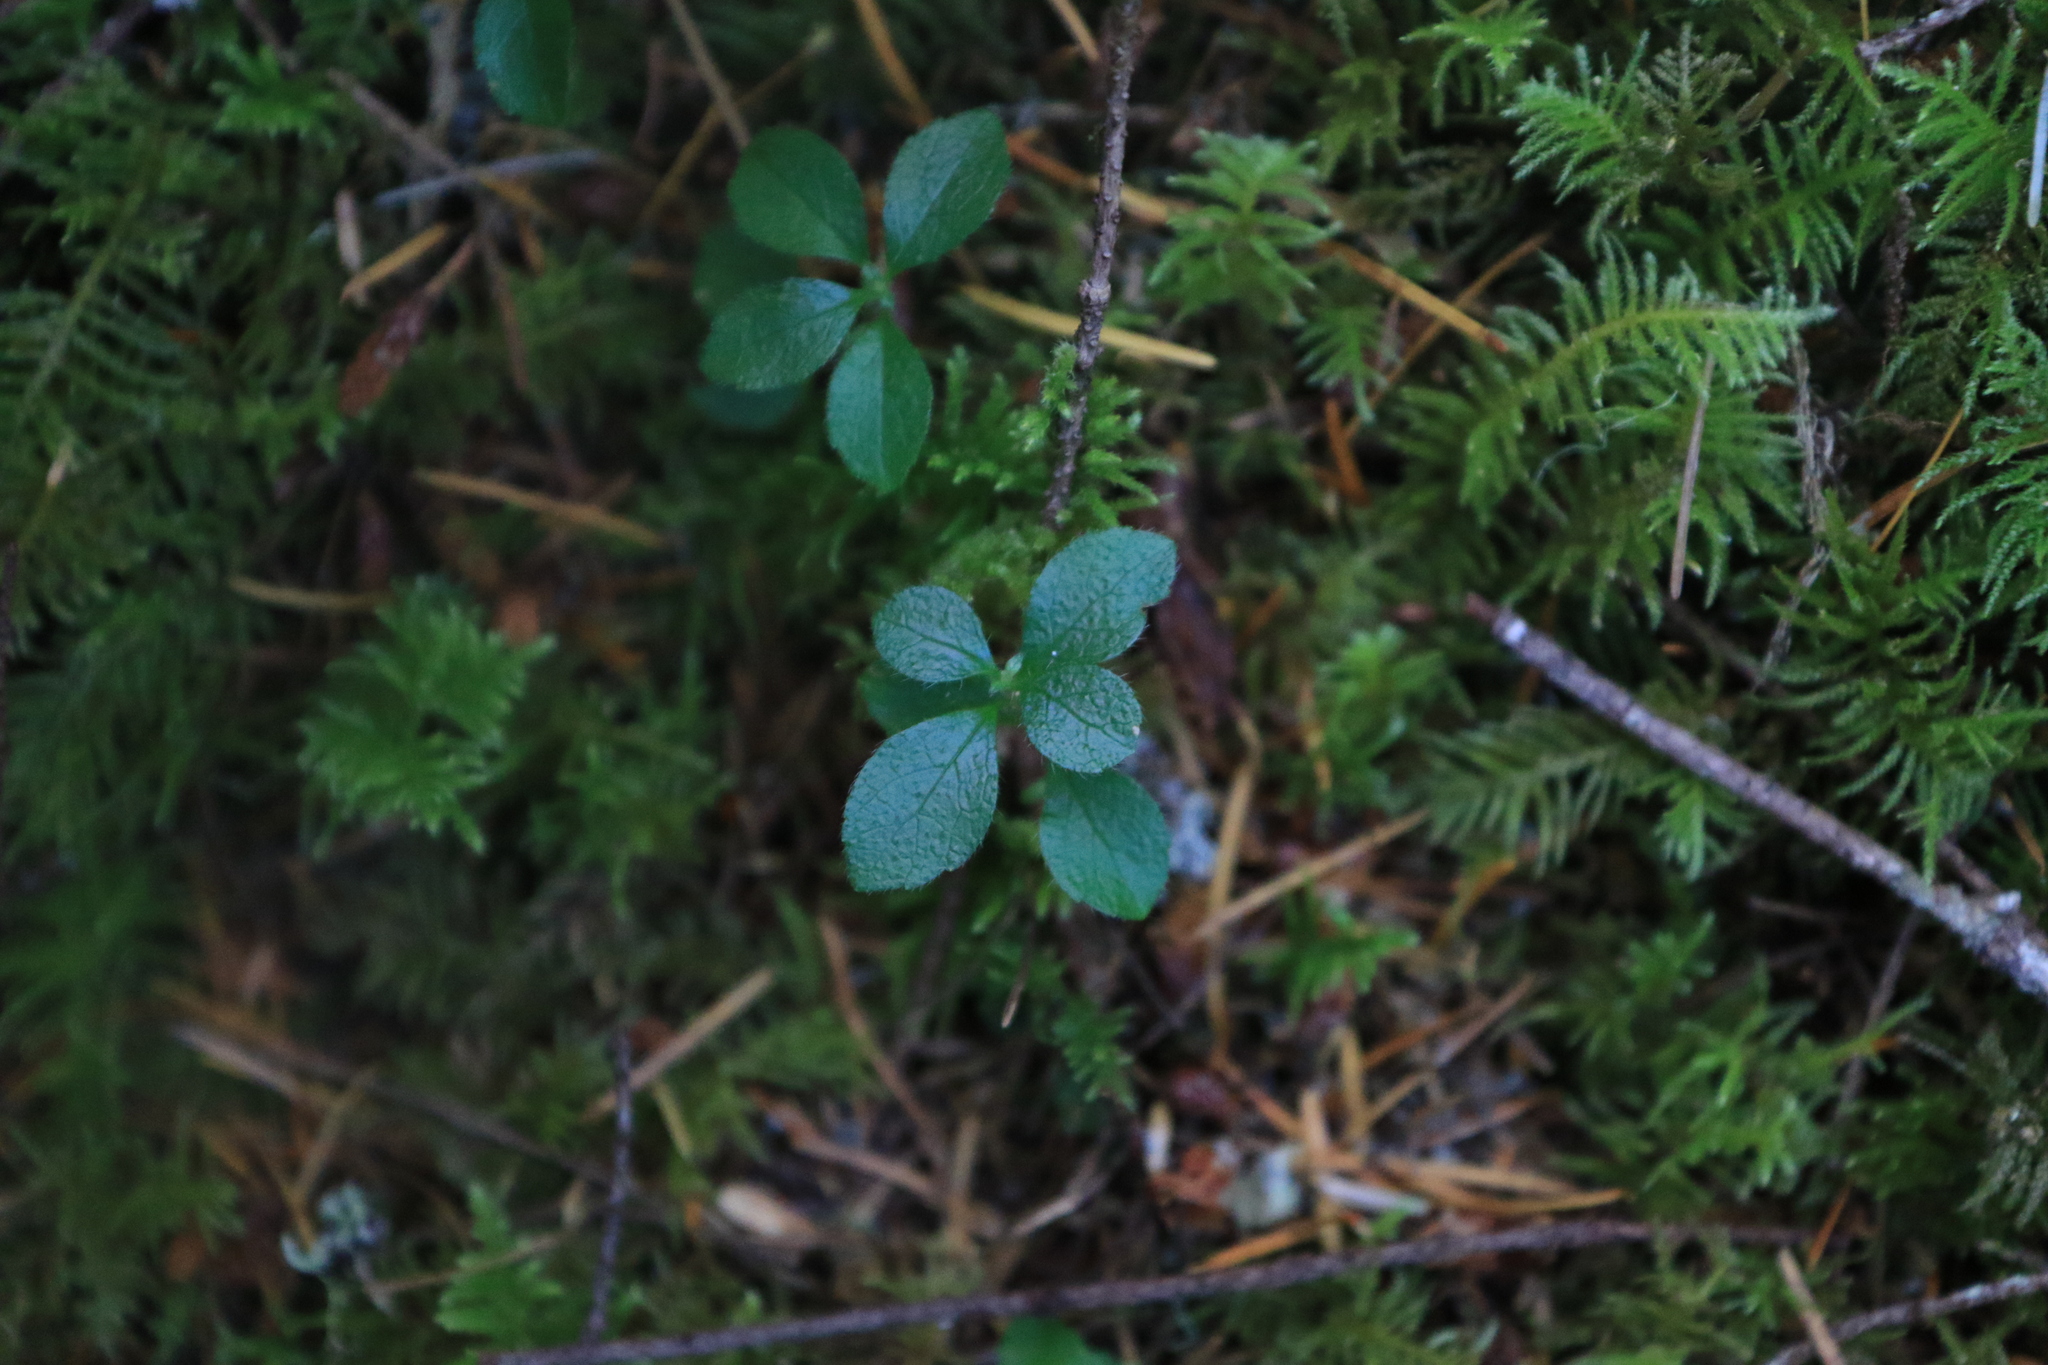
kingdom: Plantae
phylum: Tracheophyta
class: Magnoliopsida
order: Dipsacales
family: Caprifoliaceae
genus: Linnaea
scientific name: Linnaea borealis
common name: Twinflower
